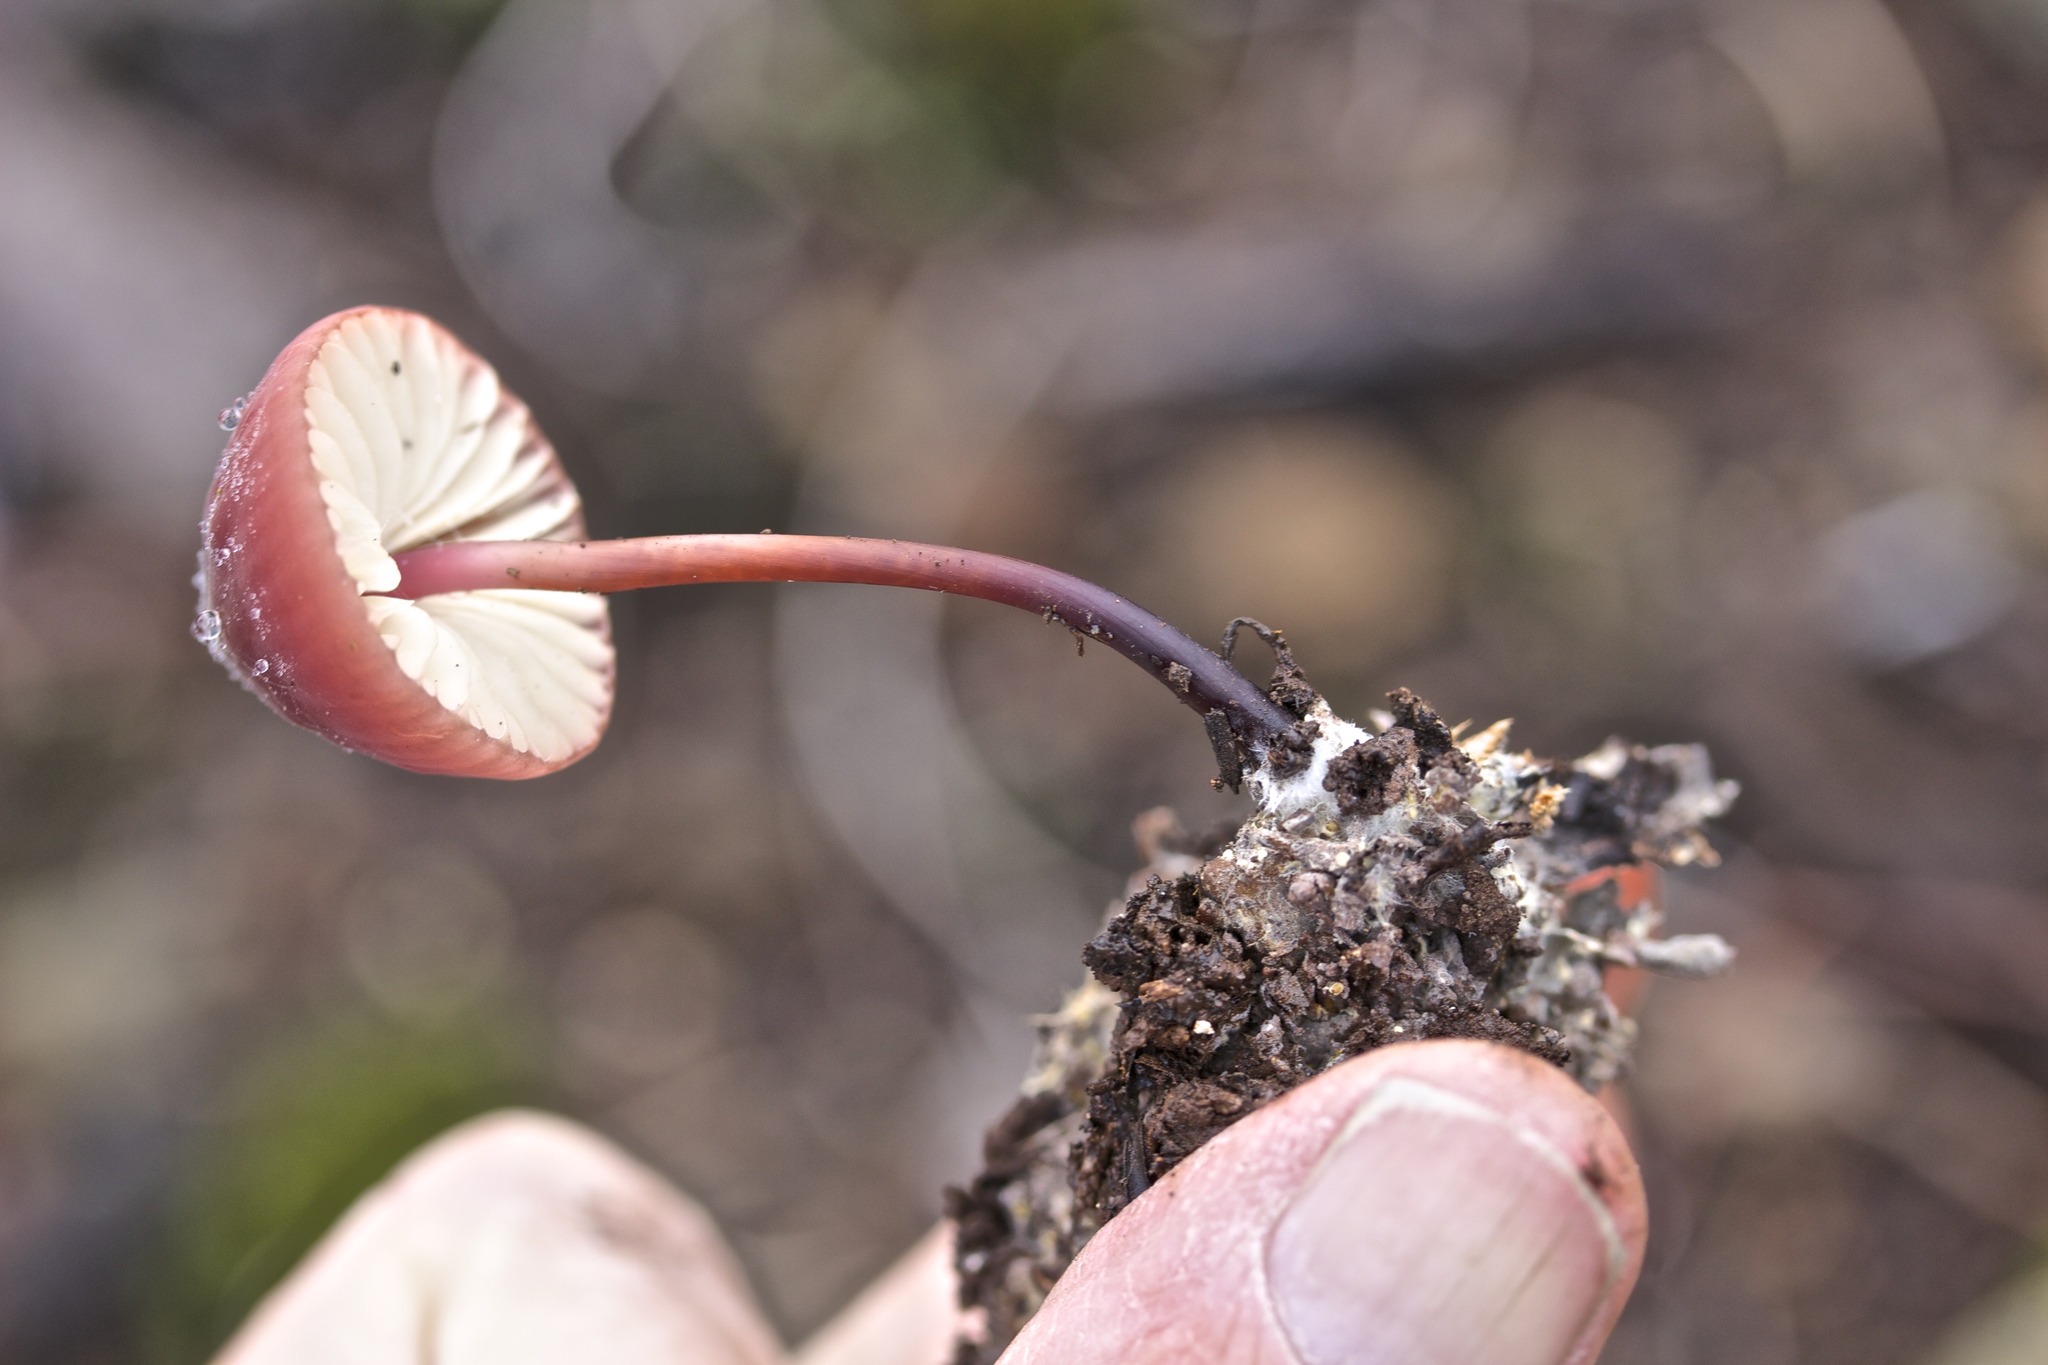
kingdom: Fungi
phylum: Basidiomycota
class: Agaricomycetes
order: Agaricales
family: Marasmiaceae
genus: Marasmius
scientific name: Marasmius plicatulus
